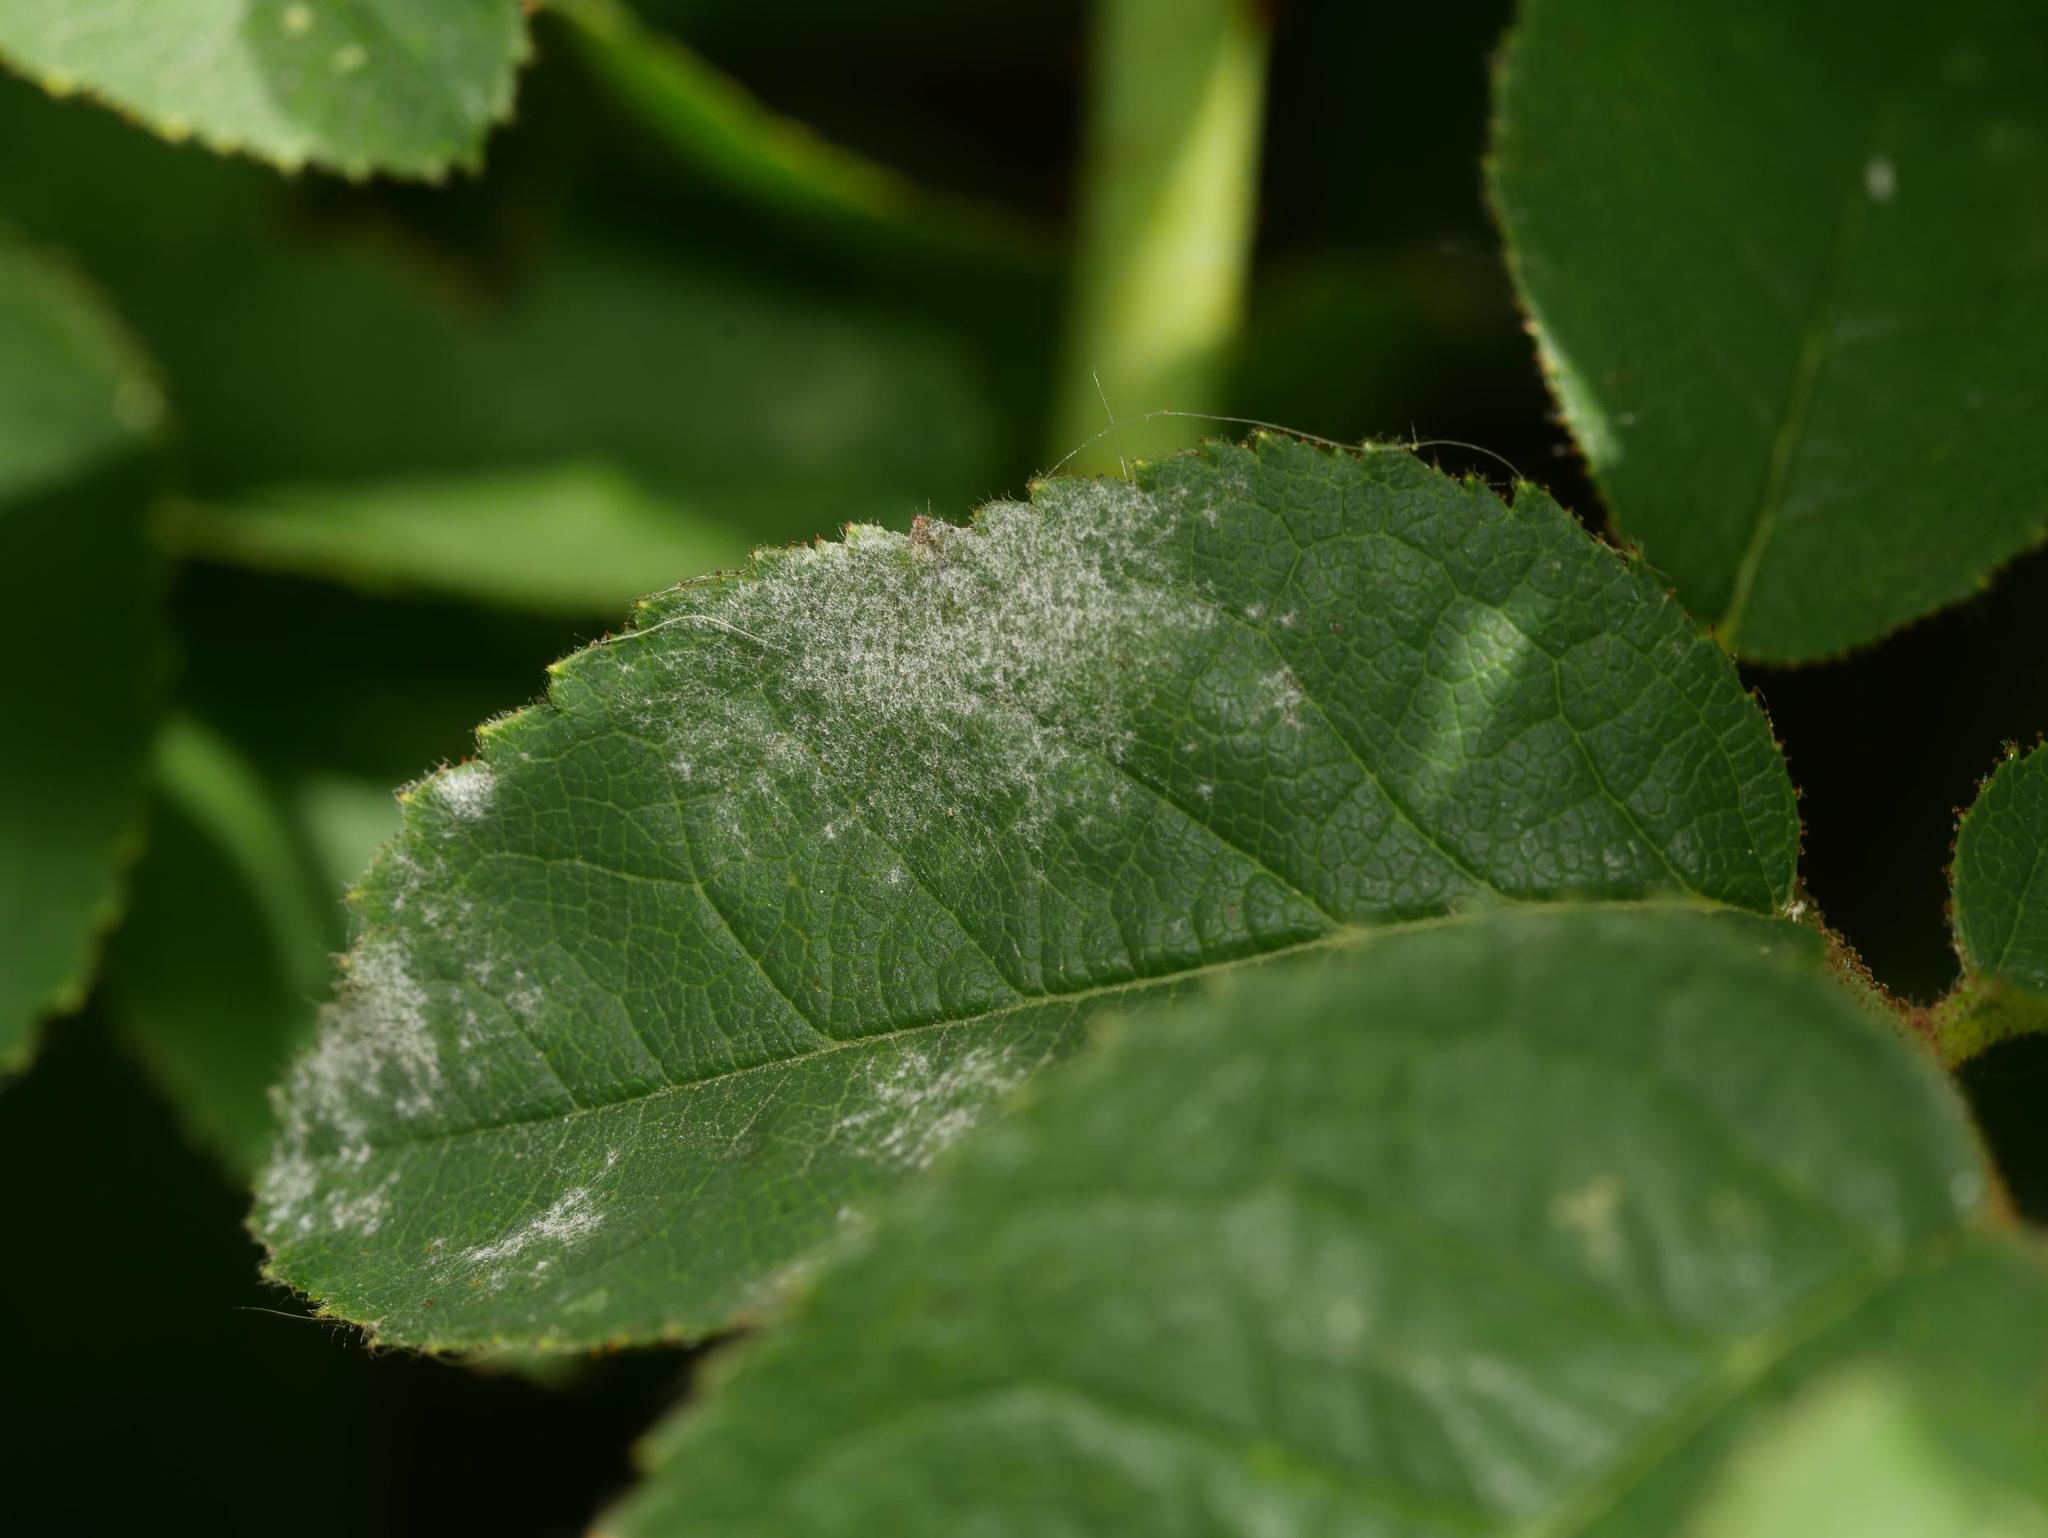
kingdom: Fungi
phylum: Ascomycota
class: Leotiomycetes
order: Helotiales
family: Erysiphaceae
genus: Podosphaera
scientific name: Podosphaera pannosa
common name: Rose mildew
